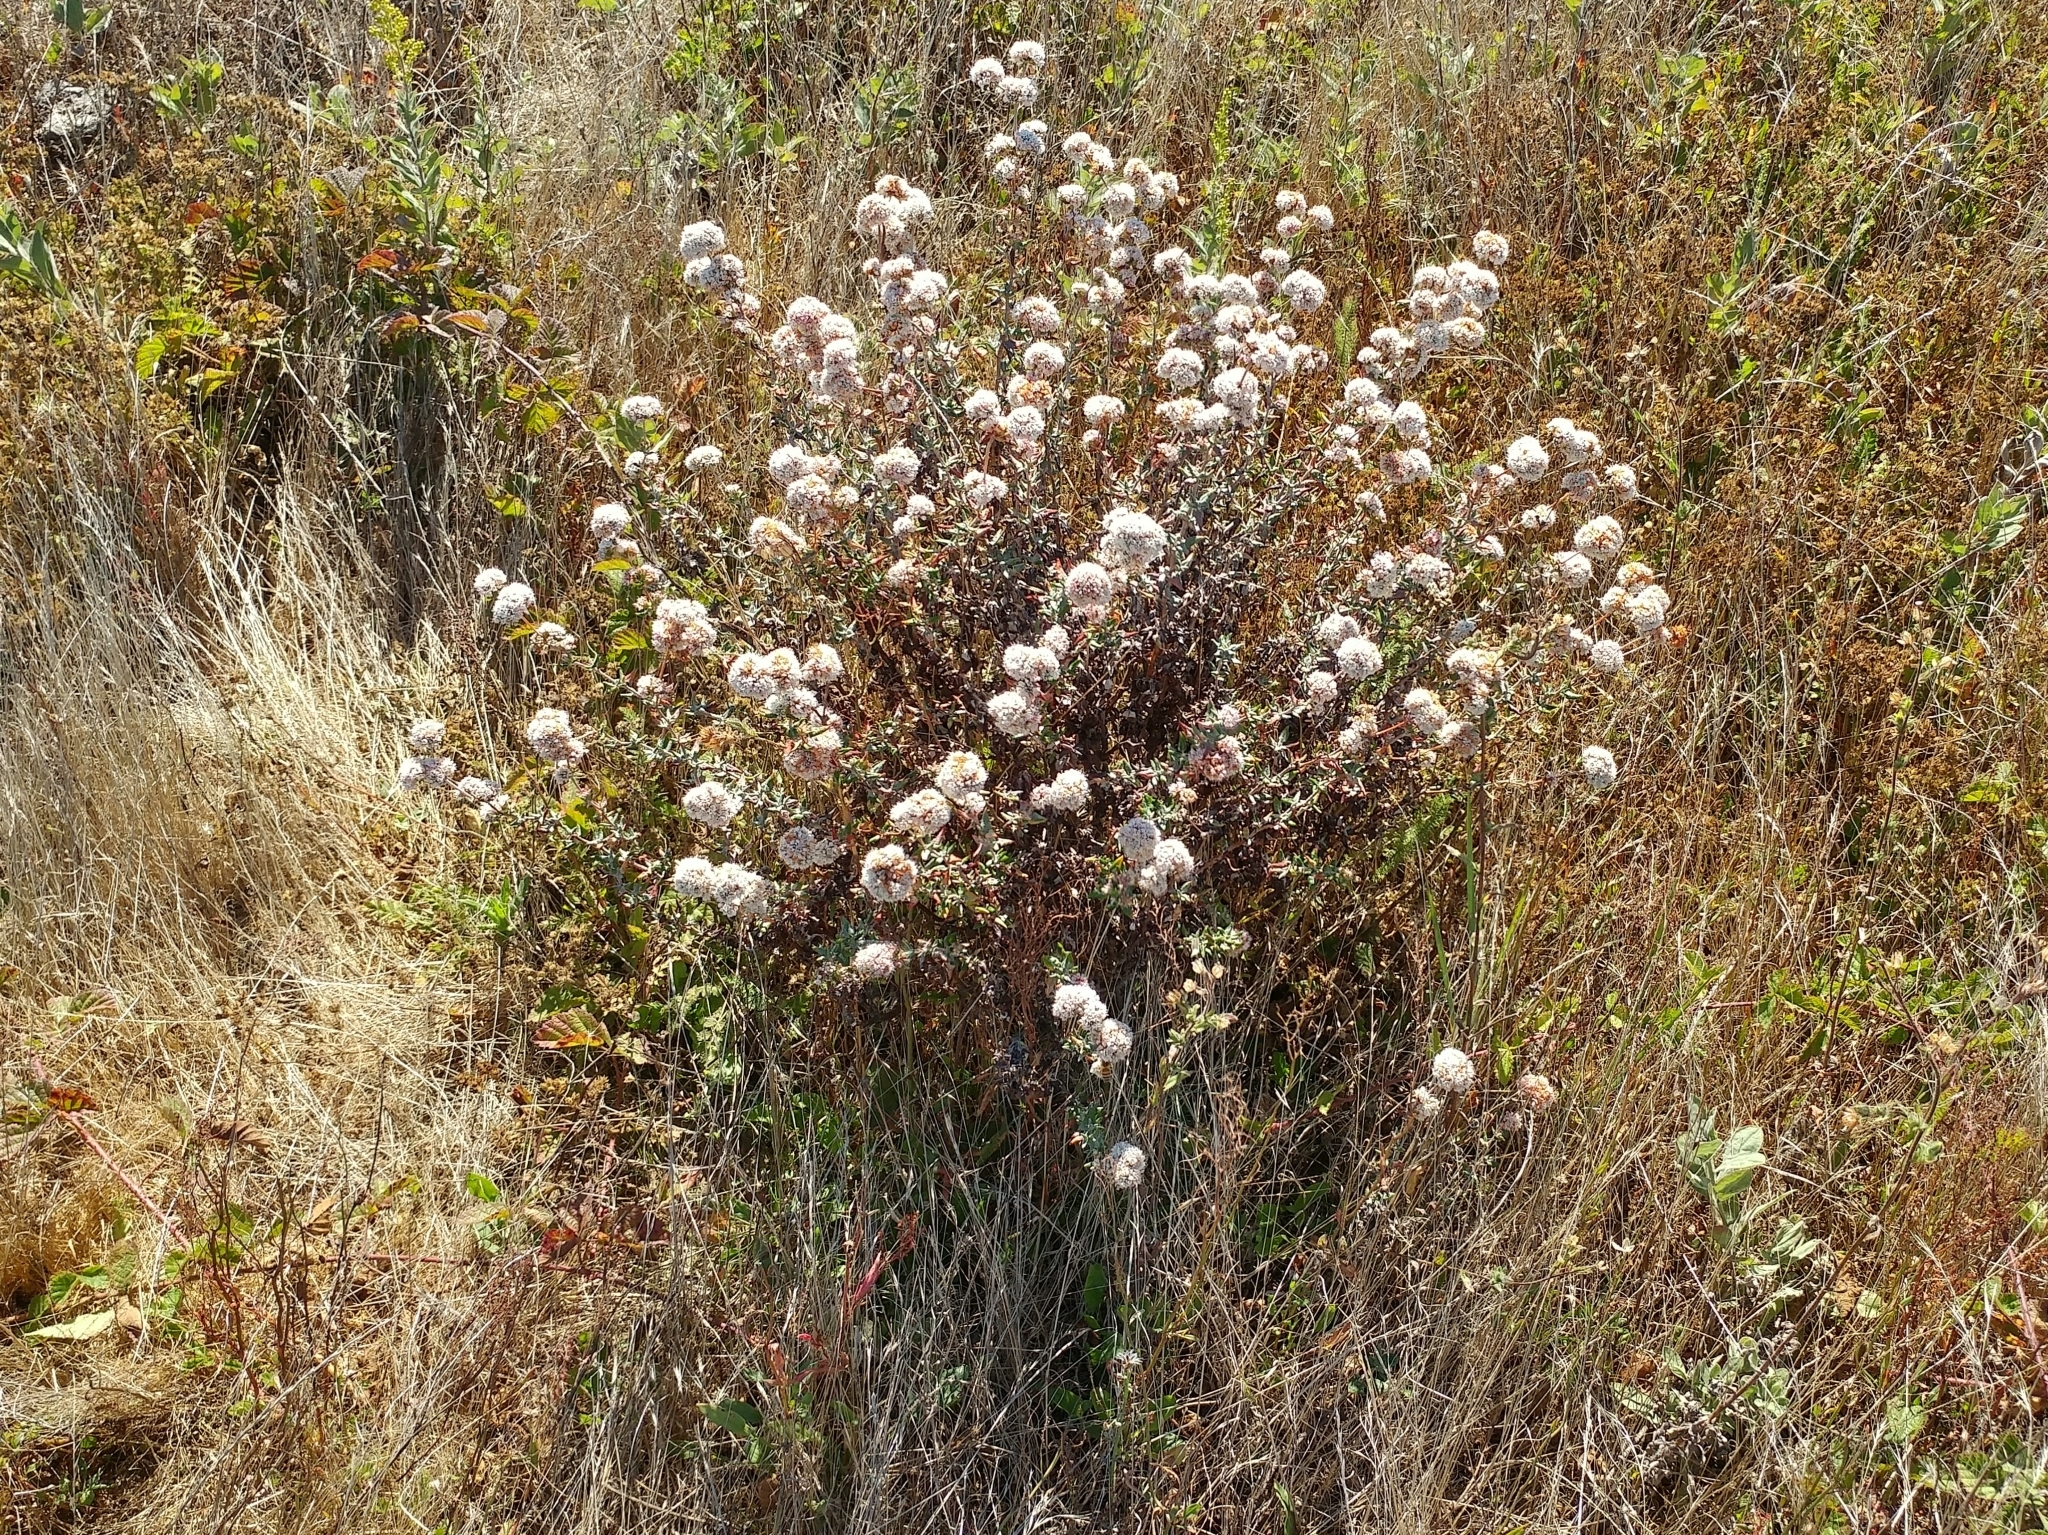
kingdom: Plantae
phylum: Tracheophyta
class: Magnoliopsida
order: Caryophyllales
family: Polygonaceae
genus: Eriogonum
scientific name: Eriogonum parvifolium
